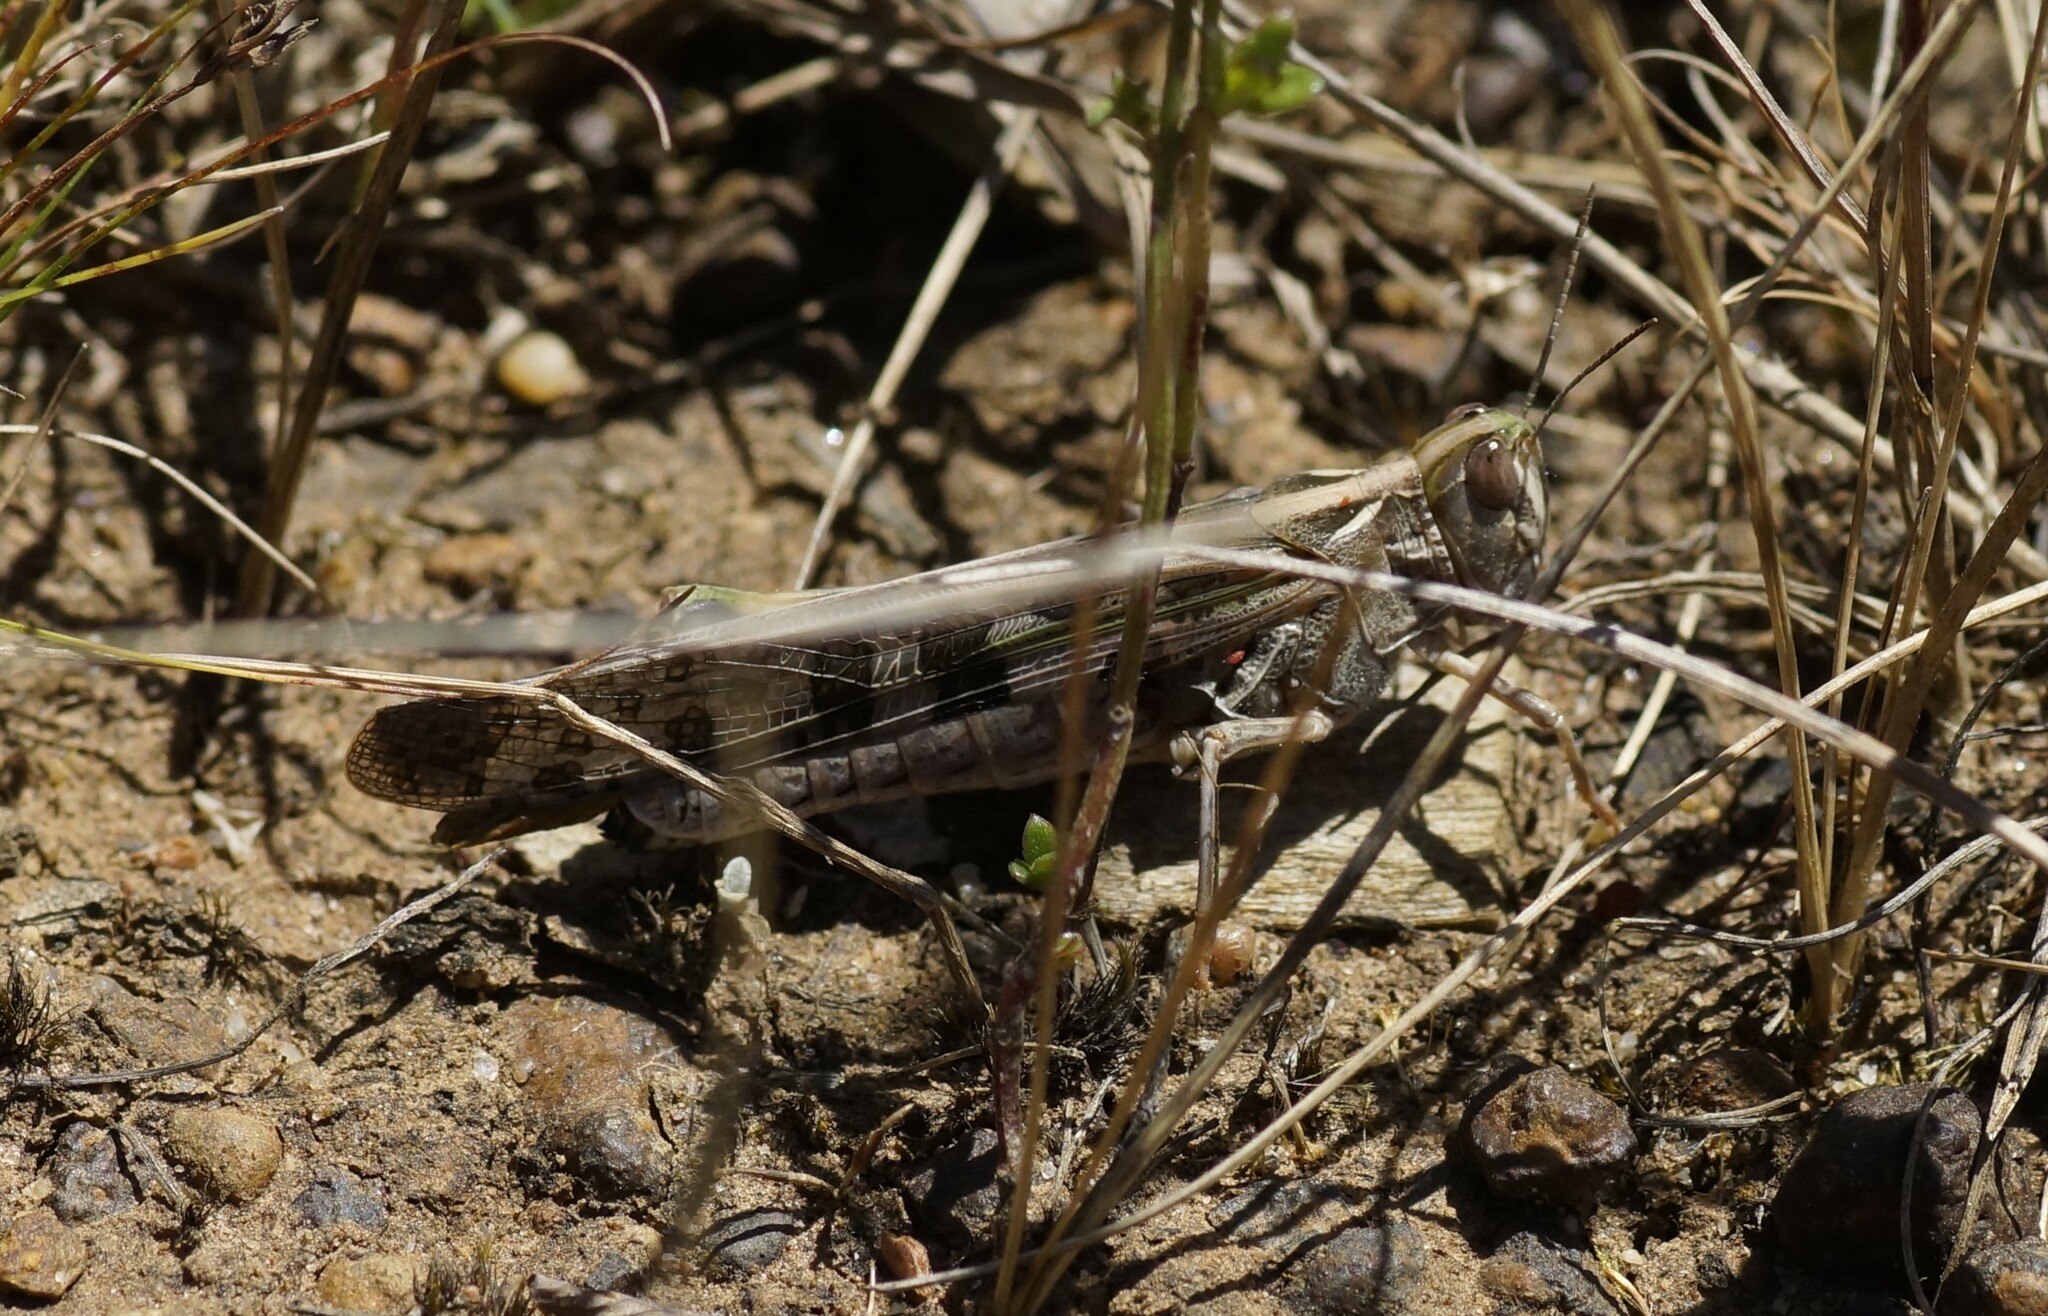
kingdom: Animalia
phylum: Arthropoda
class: Insecta
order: Orthoptera
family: Acrididae
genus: Chortoicetes
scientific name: Chortoicetes terminifera
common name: Australian plague locust
